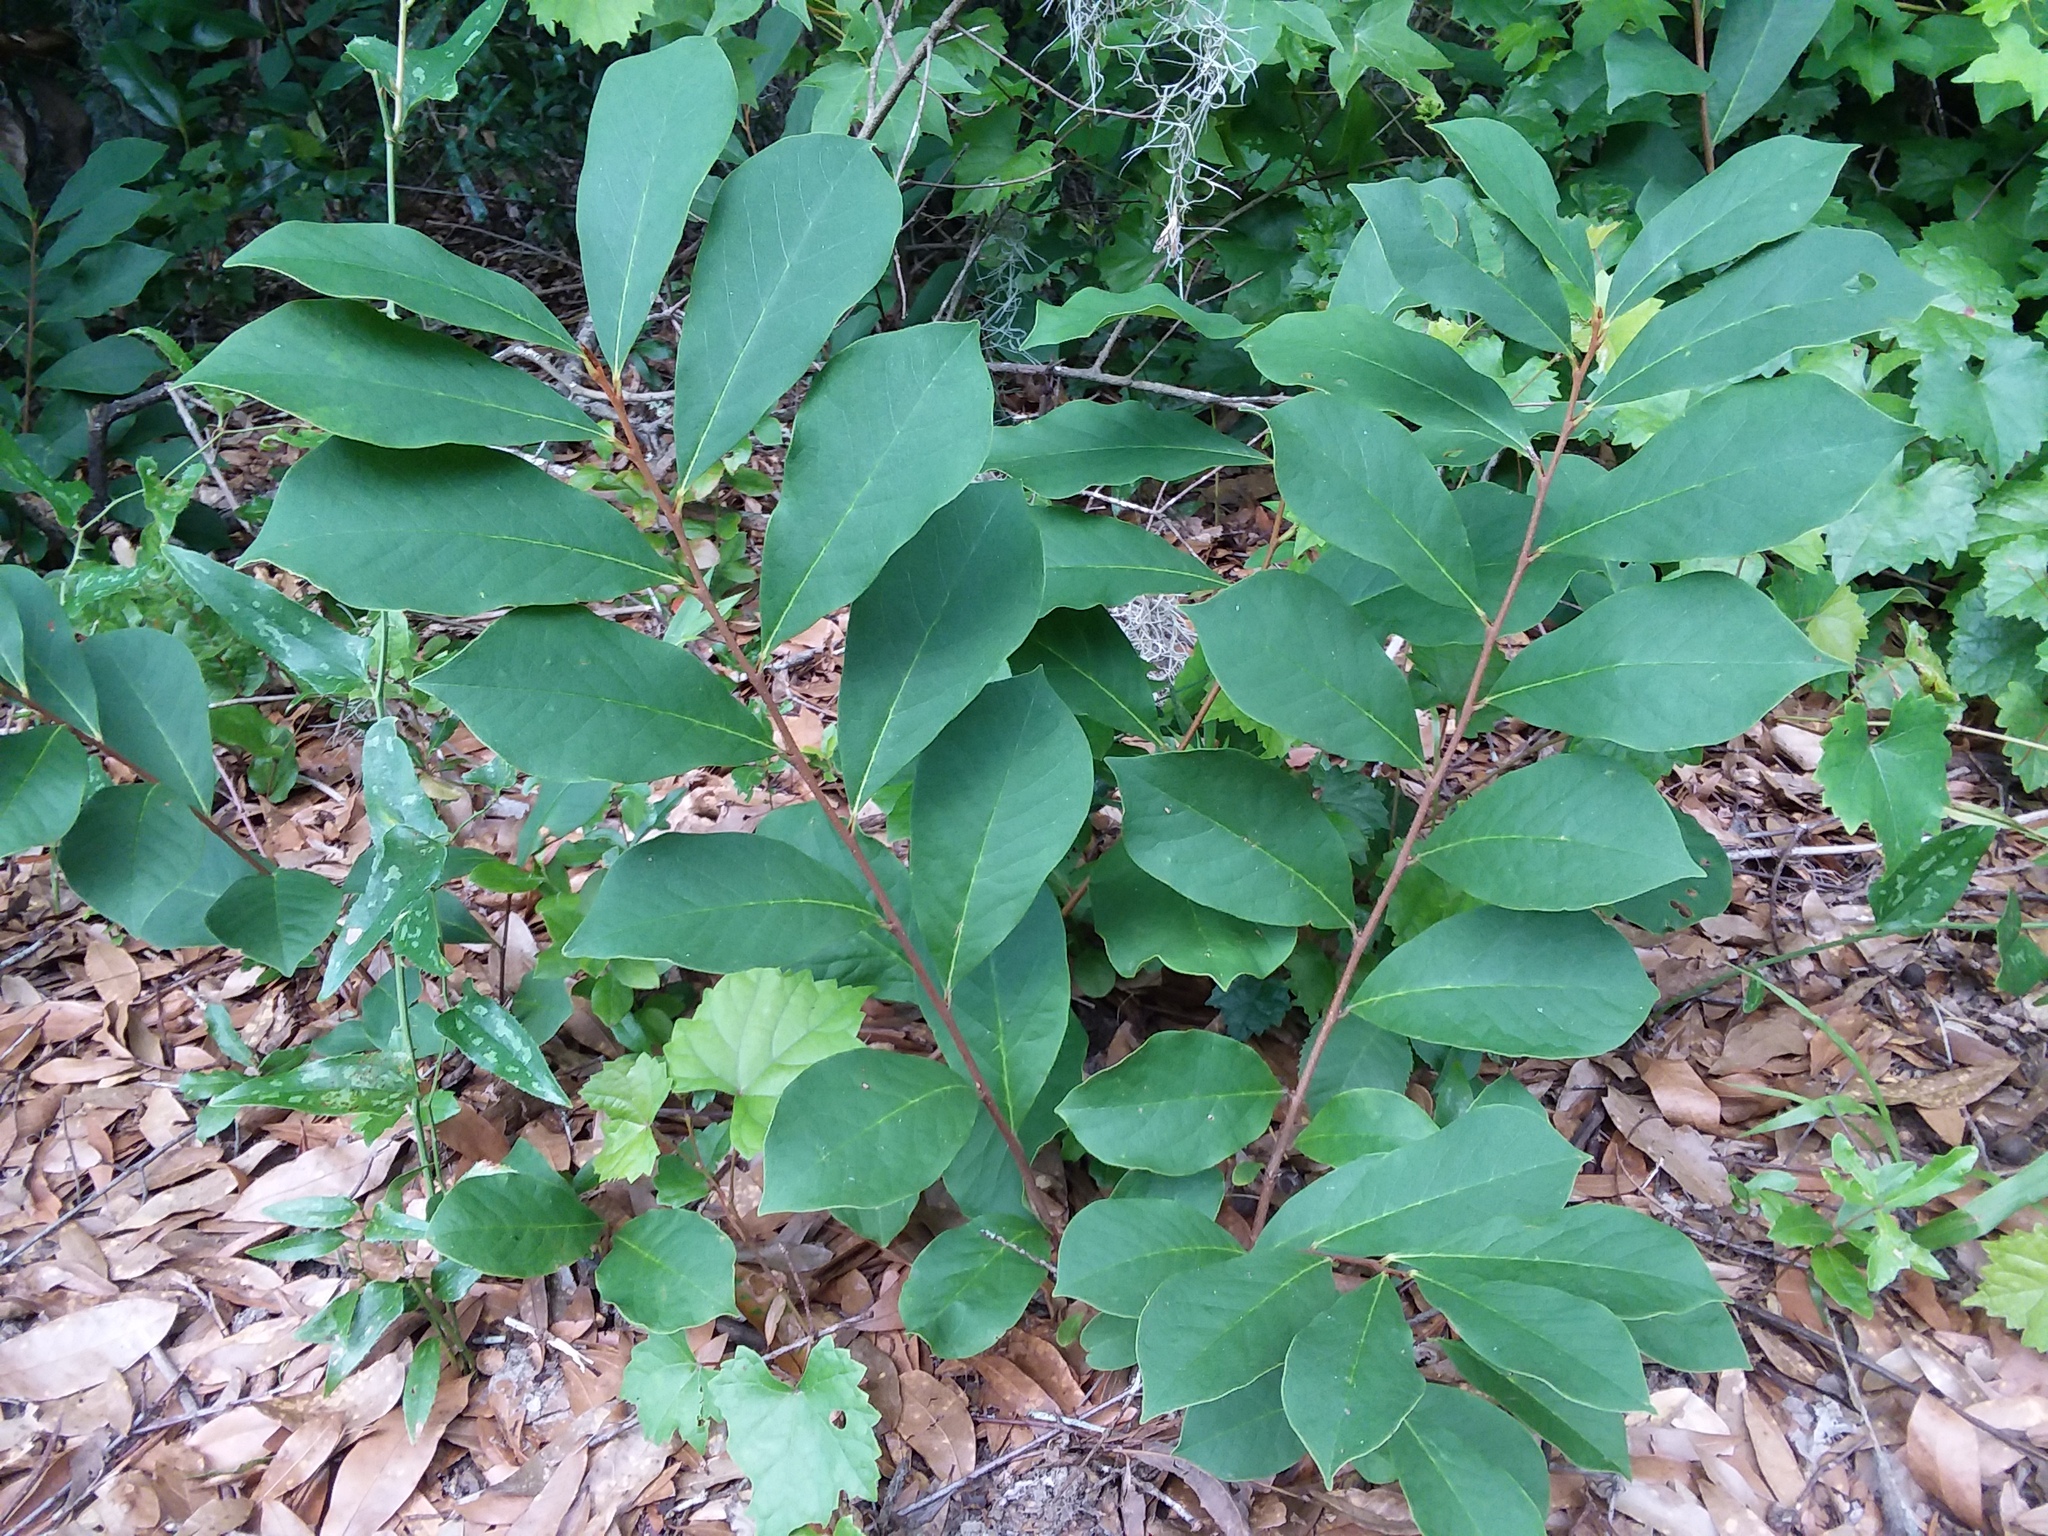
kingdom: Plantae
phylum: Tracheophyta
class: Magnoliopsida
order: Magnoliales
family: Annonaceae
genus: Asimina
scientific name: Asimina parviflora
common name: Dwarf pawpaw
